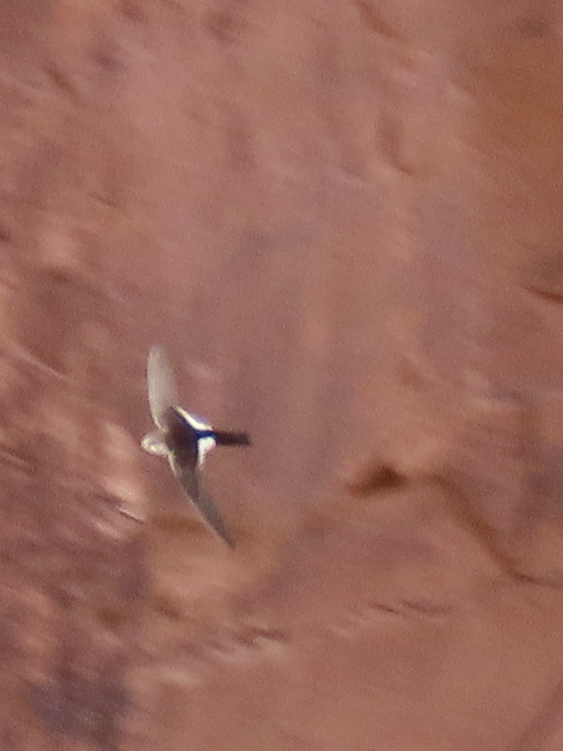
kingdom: Animalia
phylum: Chordata
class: Aves
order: Apodiformes
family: Apodidae
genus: Aeronautes
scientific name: Aeronautes saxatalis
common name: White-throated swift
